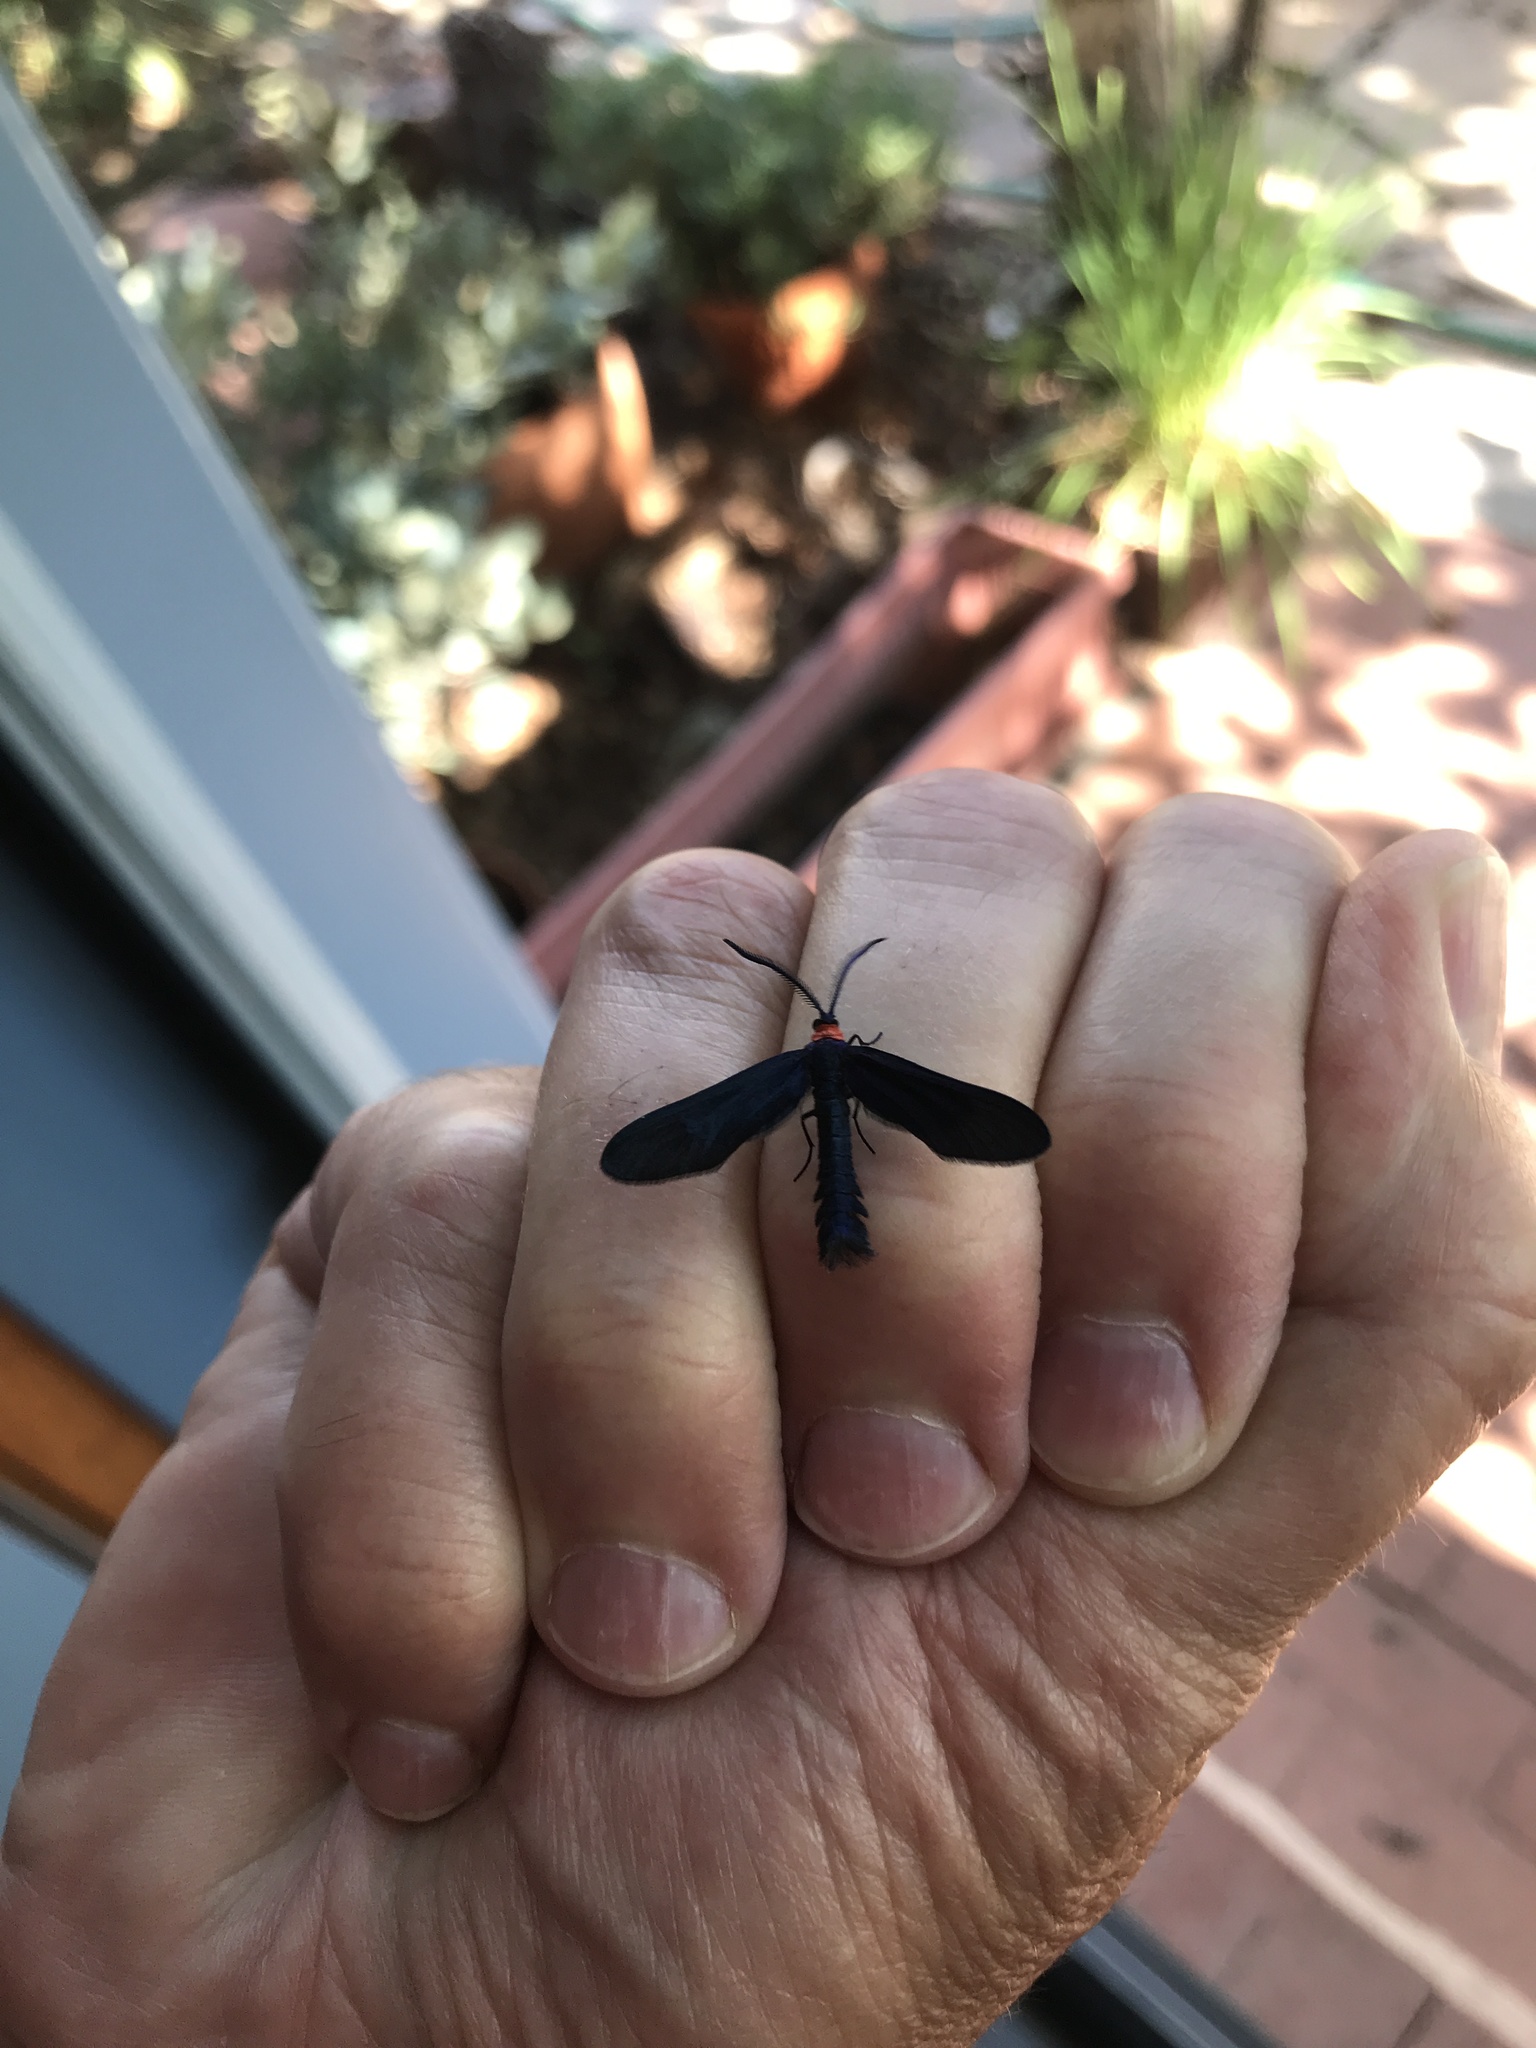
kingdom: Animalia
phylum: Arthropoda
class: Insecta
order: Lepidoptera
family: Zygaenidae
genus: Harrisina
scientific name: Harrisina americana
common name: Grapeleaf skeletonizer moth
